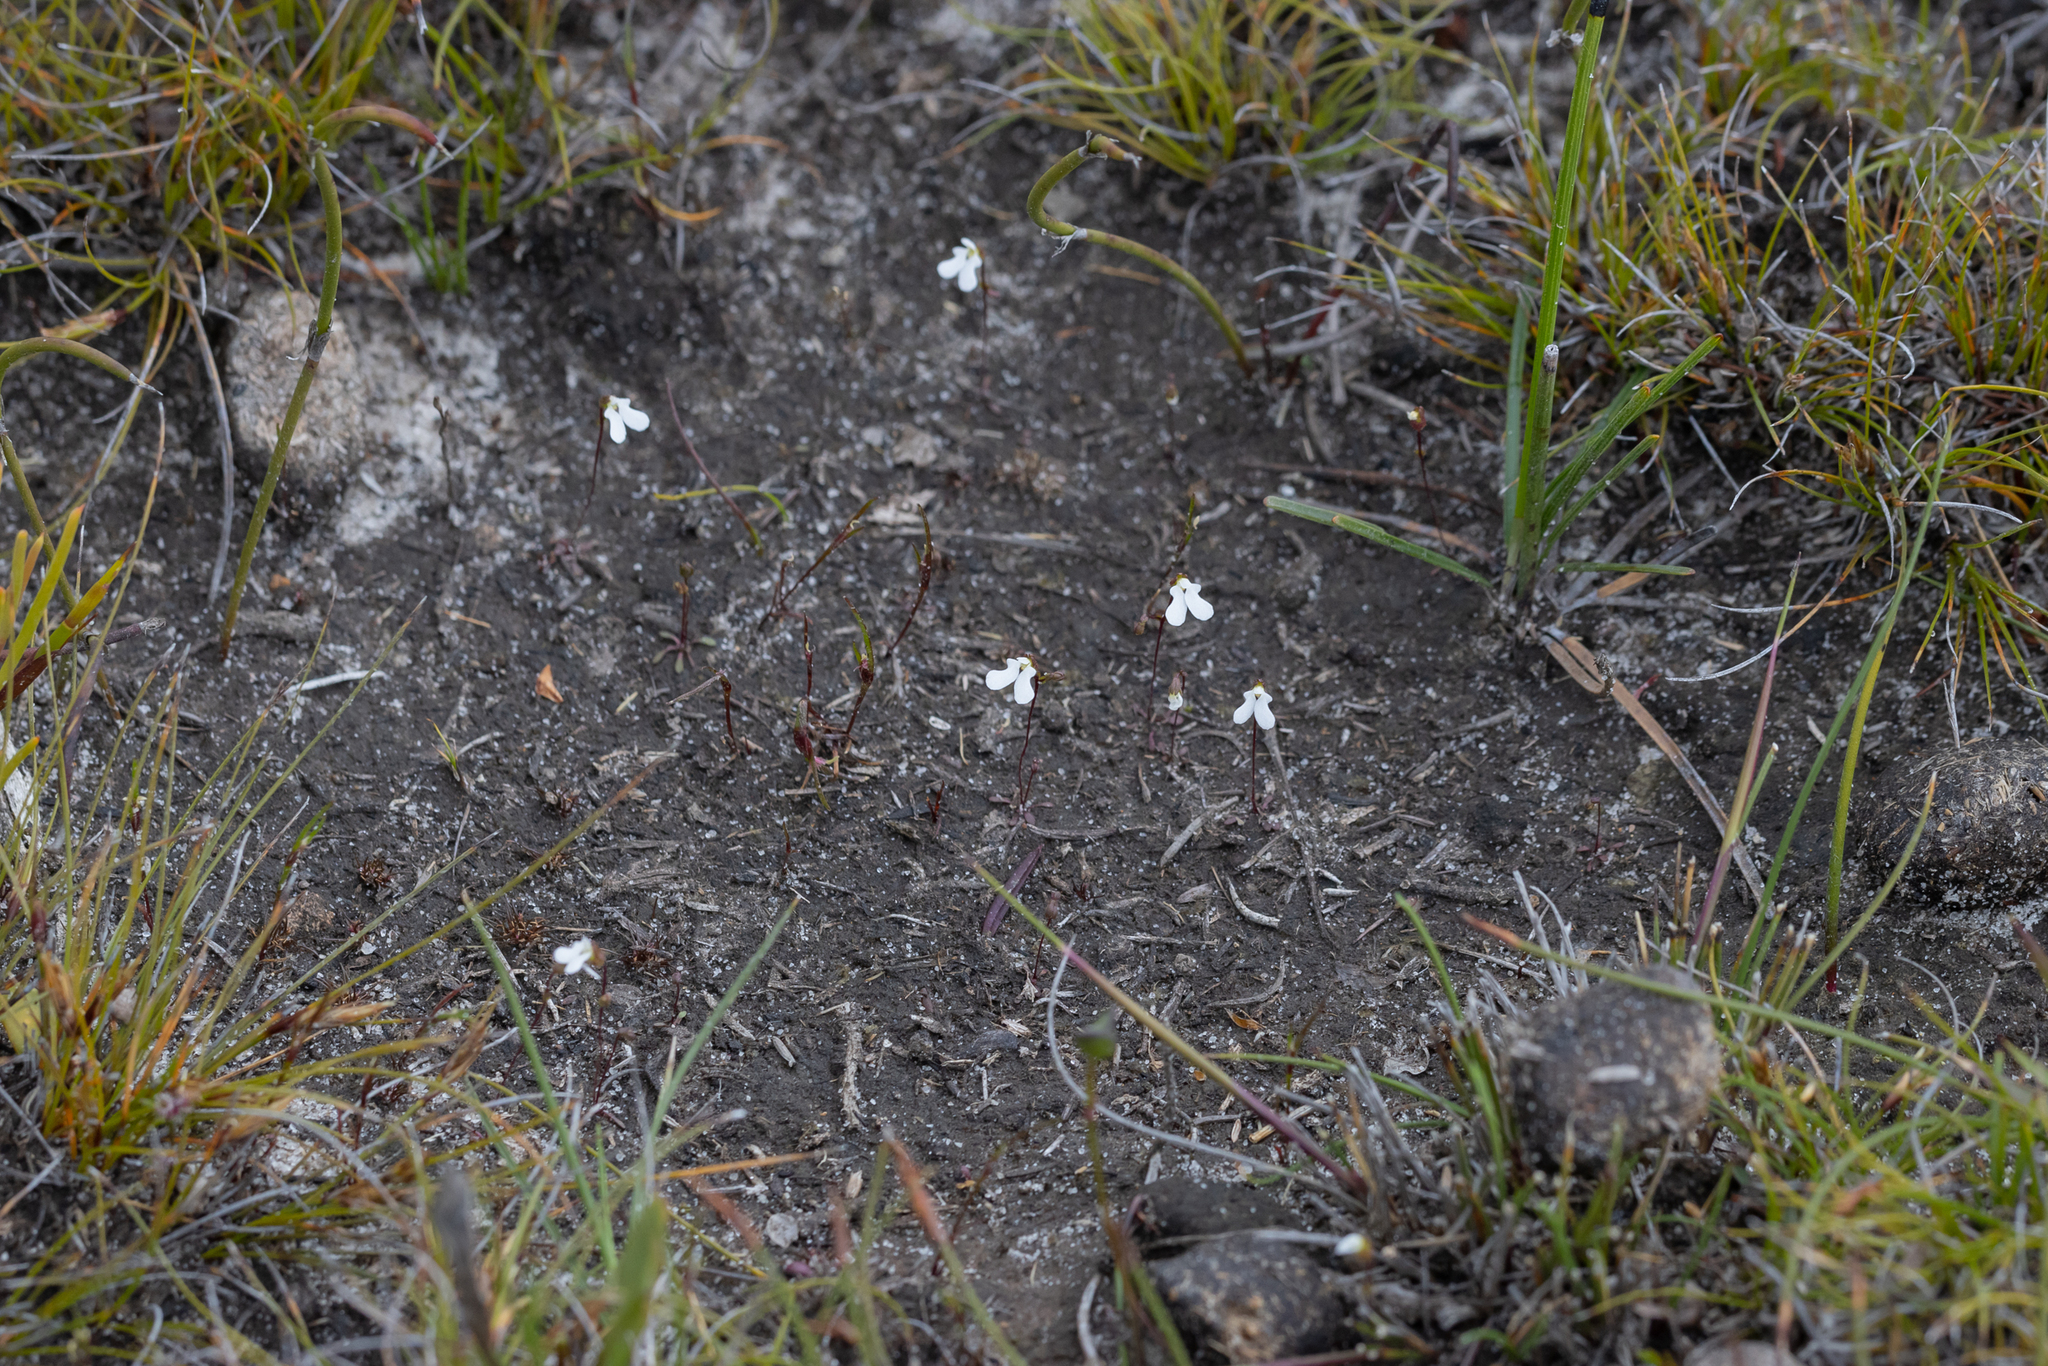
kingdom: Plantae
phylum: Tracheophyta
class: Magnoliopsida
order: Asterales
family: Stylidiaceae
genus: Stylidium
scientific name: Stylidium perpusillum
